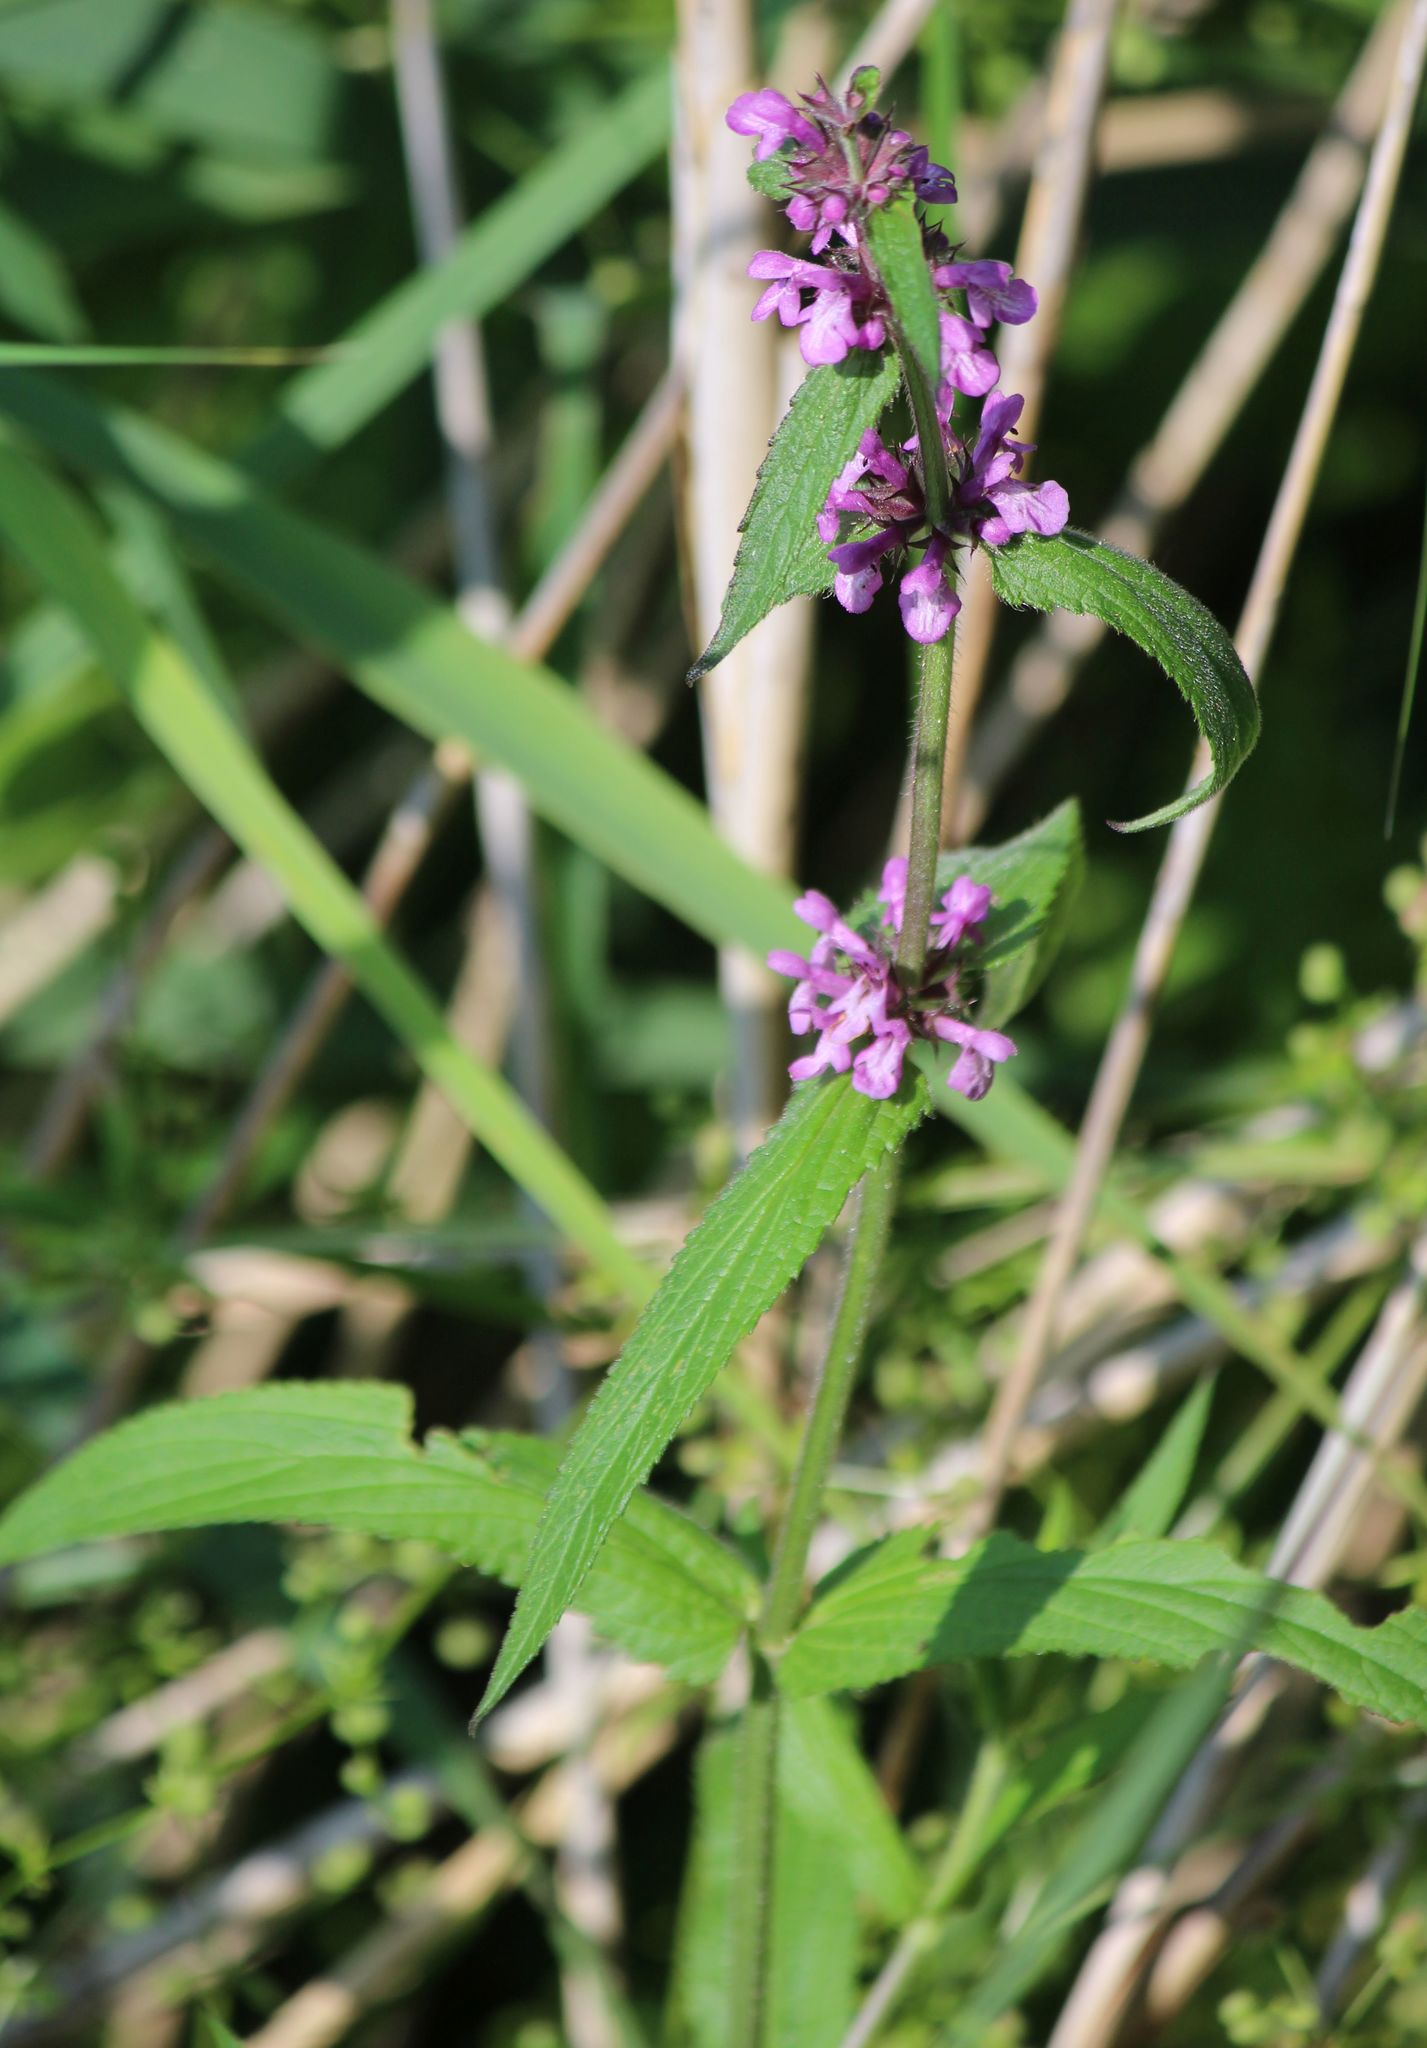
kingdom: Plantae
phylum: Tracheophyta
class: Magnoliopsida
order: Lamiales
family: Lamiaceae
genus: Stachys
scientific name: Stachys palustris
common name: Marsh woundwort
